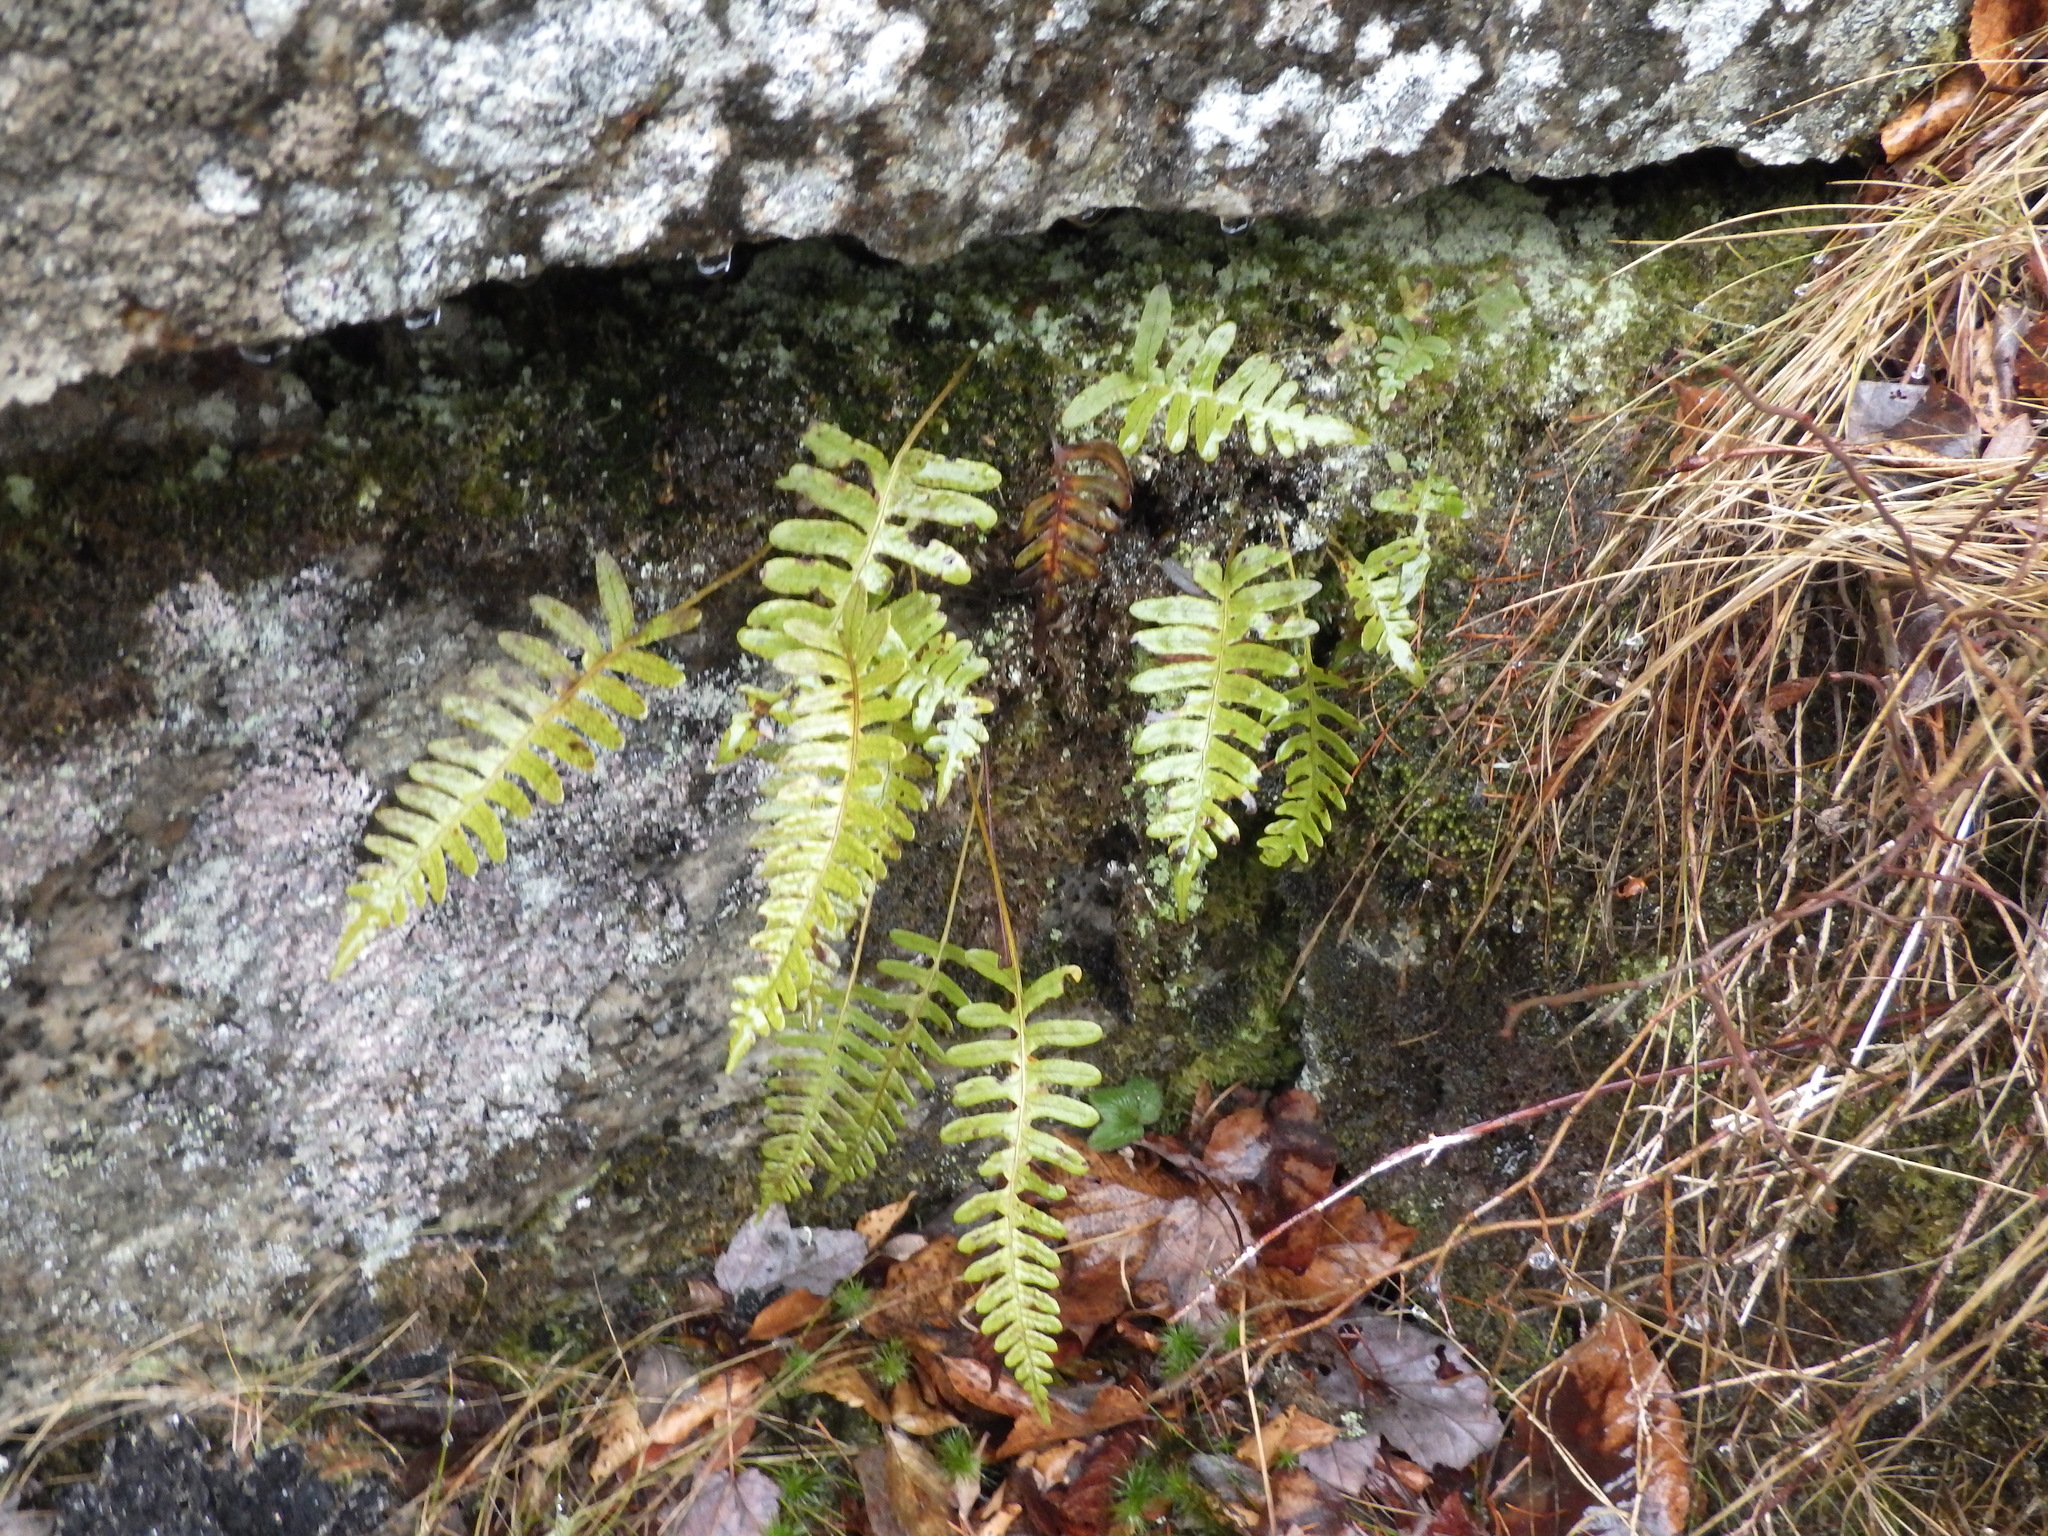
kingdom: Plantae
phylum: Tracheophyta
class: Polypodiopsida
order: Polypodiales
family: Polypodiaceae
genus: Polypodium
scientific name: Polypodium virginianum
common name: American wall fern
